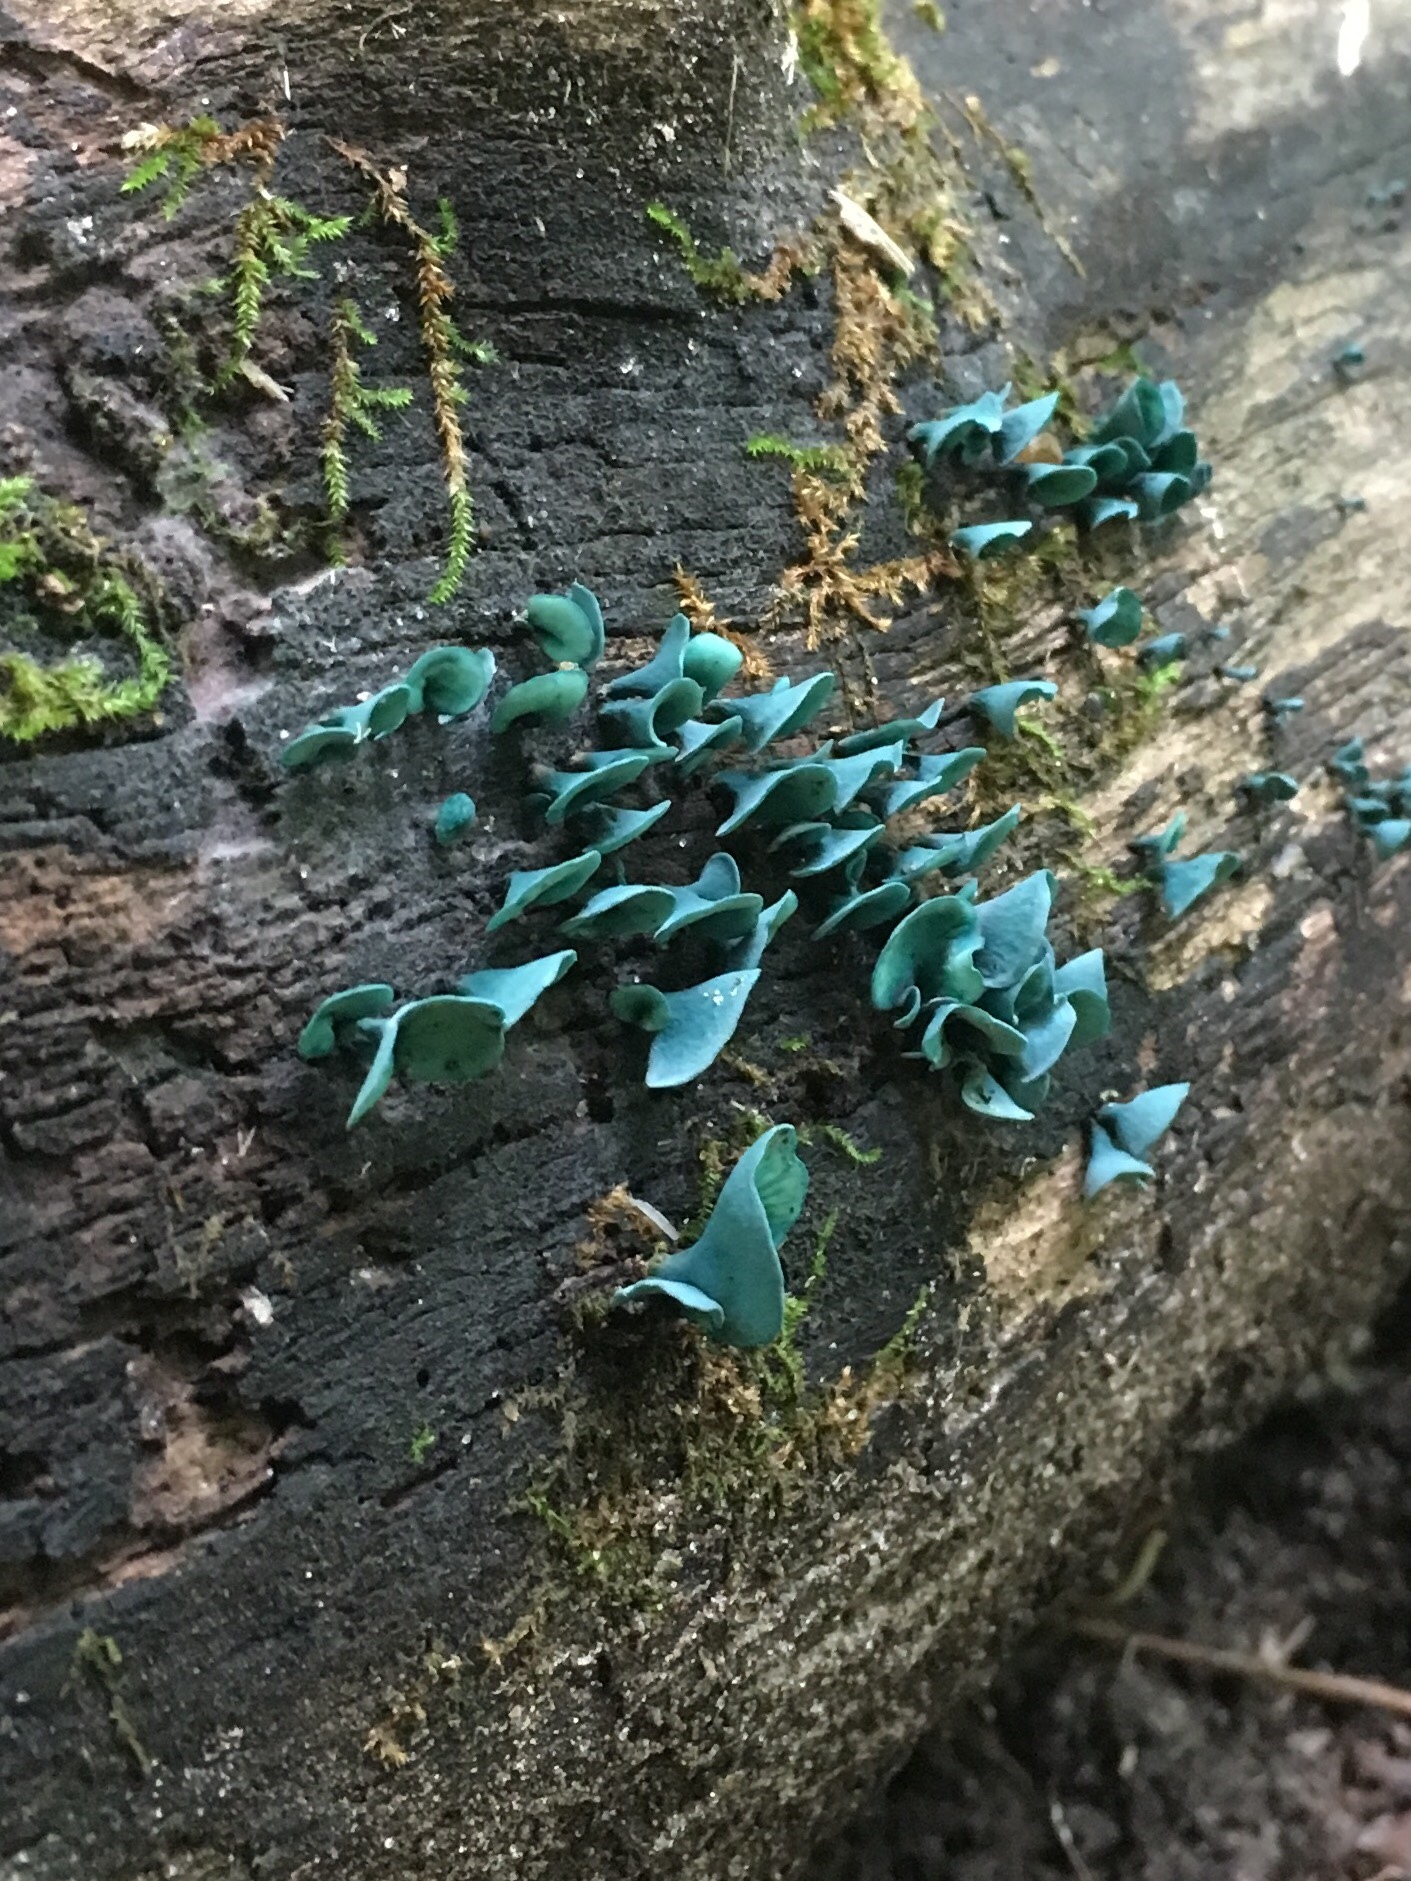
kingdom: Fungi
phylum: Ascomycota
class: Leotiomycetes
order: Helotiales
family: Chlorociboriaceae
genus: Chlorociboria
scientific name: Chlorociboria aeruginascens
